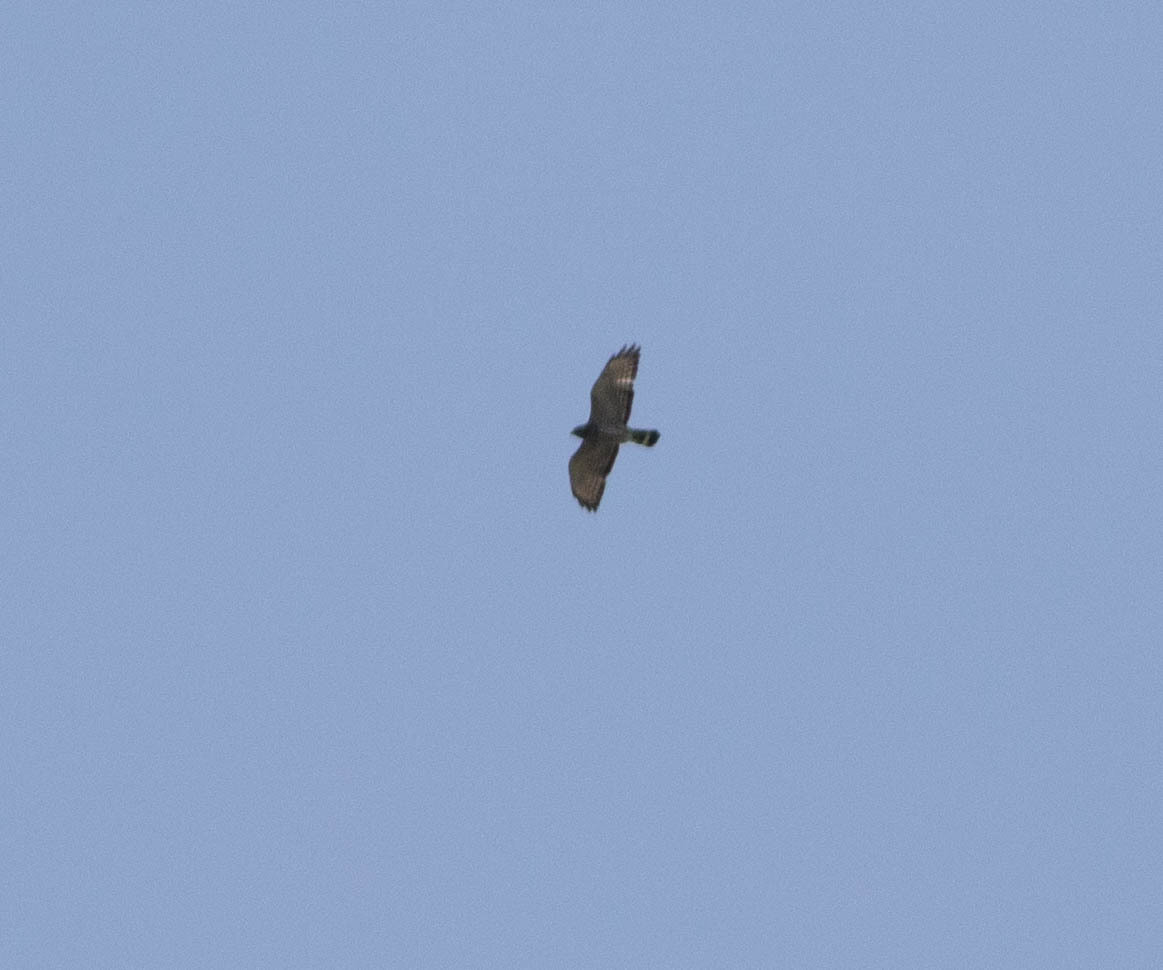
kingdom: Animalia
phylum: Chordata
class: Aves
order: Accipitriformes
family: Accipitridae
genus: Buteo
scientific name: Buteo platypterus
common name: Broad-winged hawk
